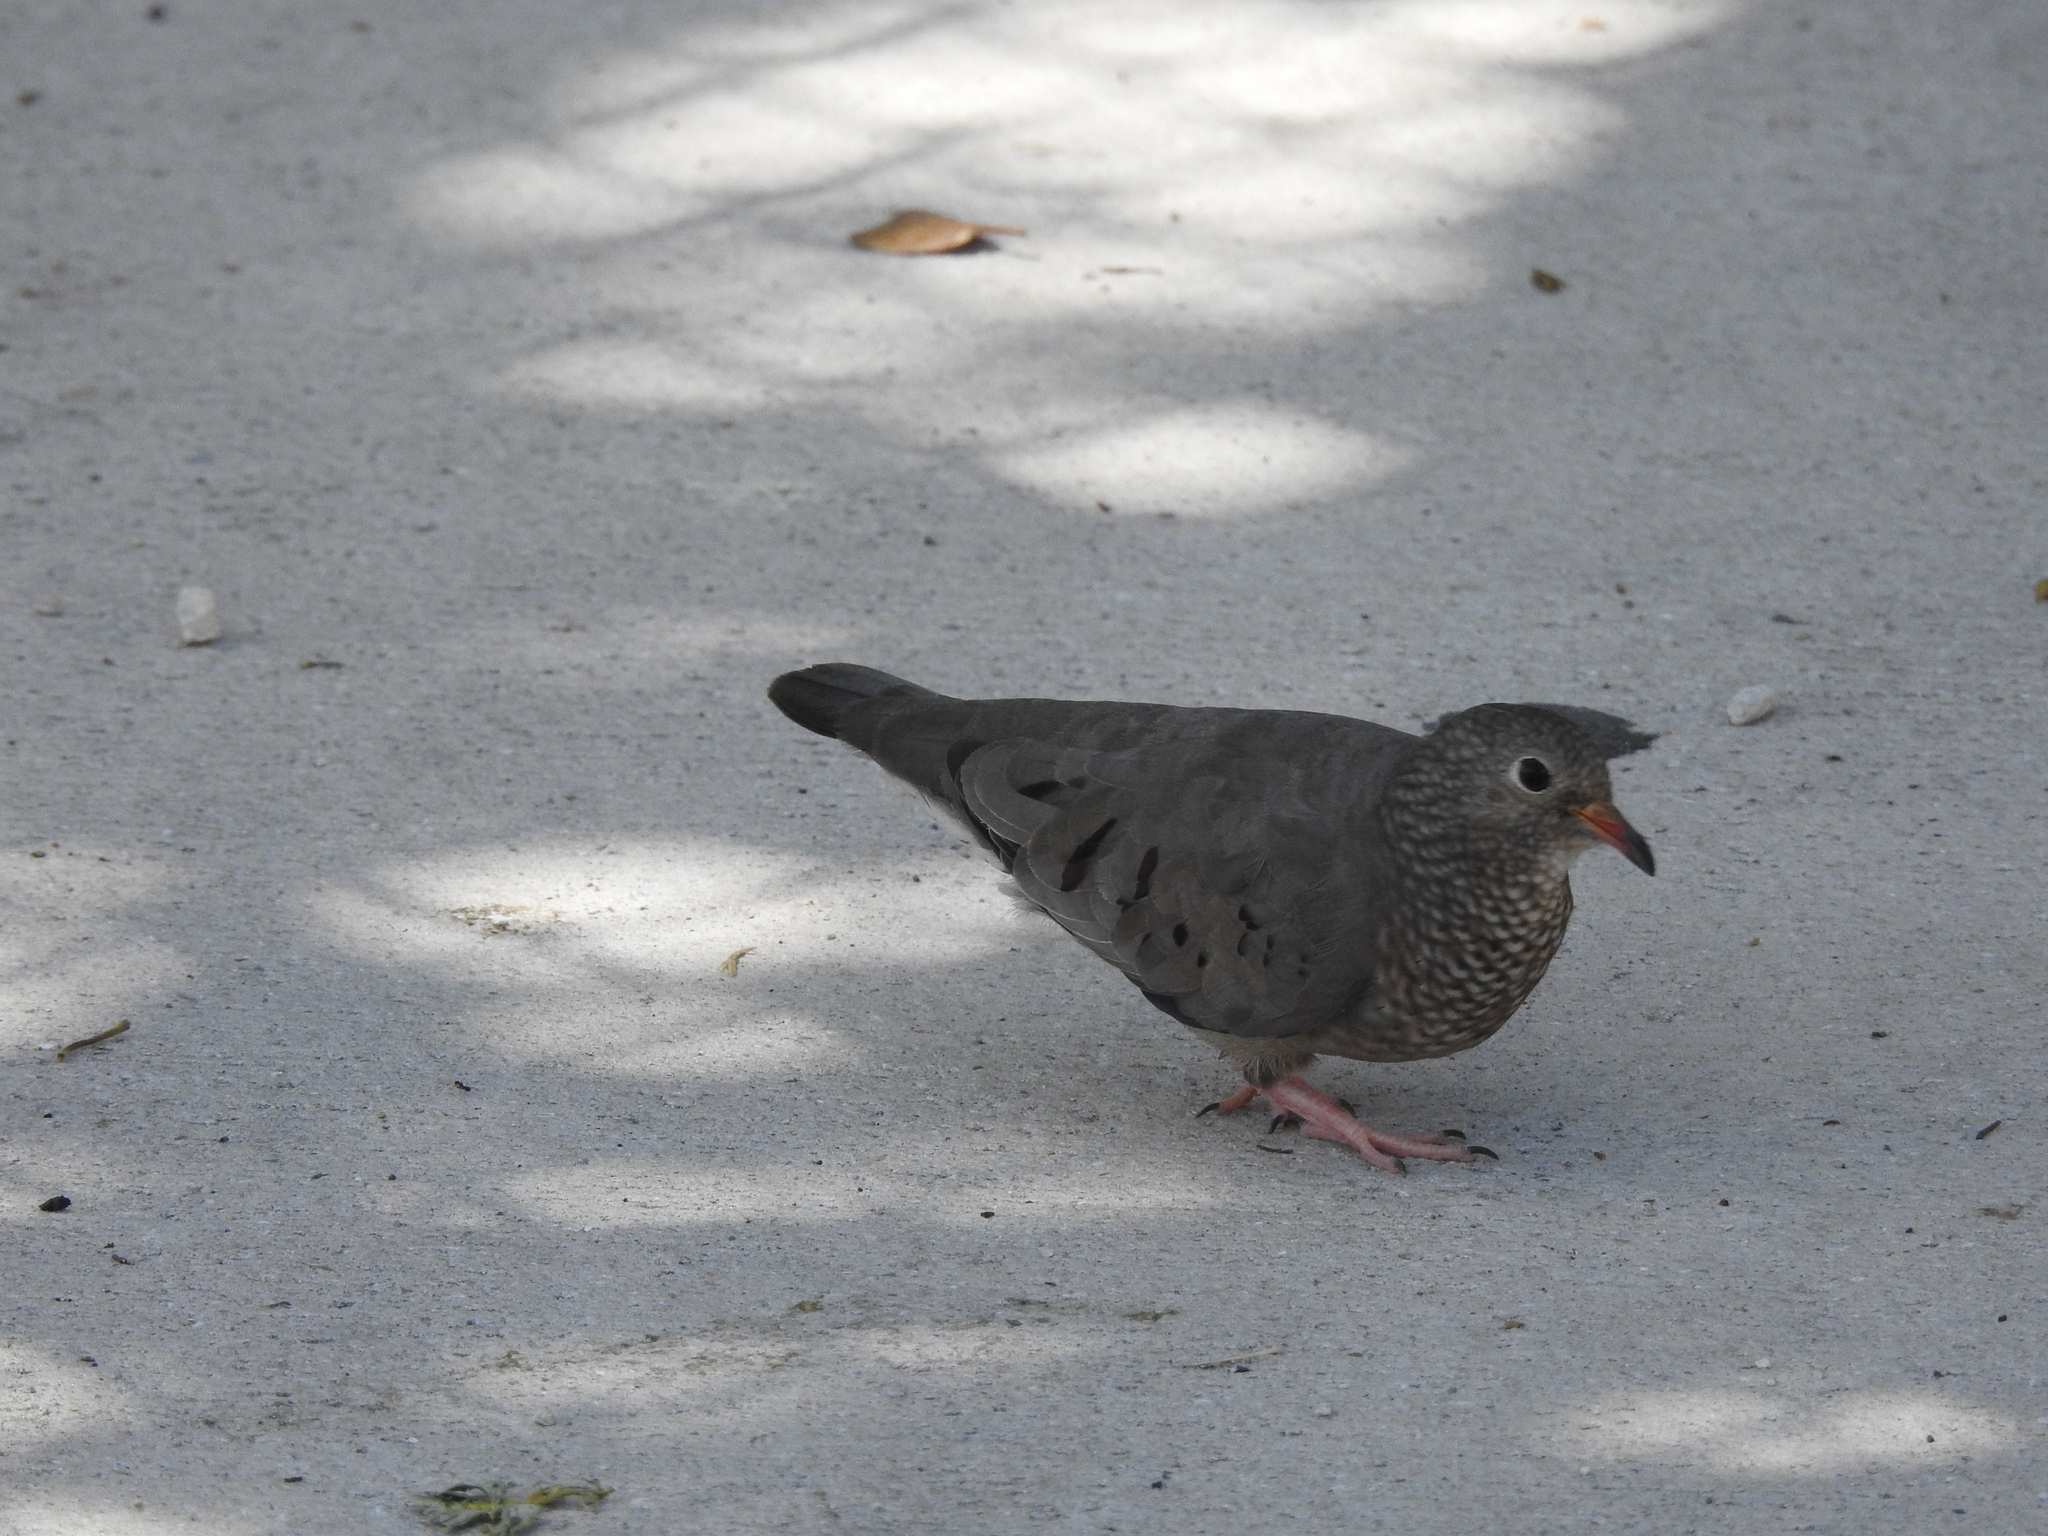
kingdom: Animalia
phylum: Chordata
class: Aves
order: Columbiformes
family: Columbidae
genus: Columbina
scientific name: Columbina passerina
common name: Common ground-dove
